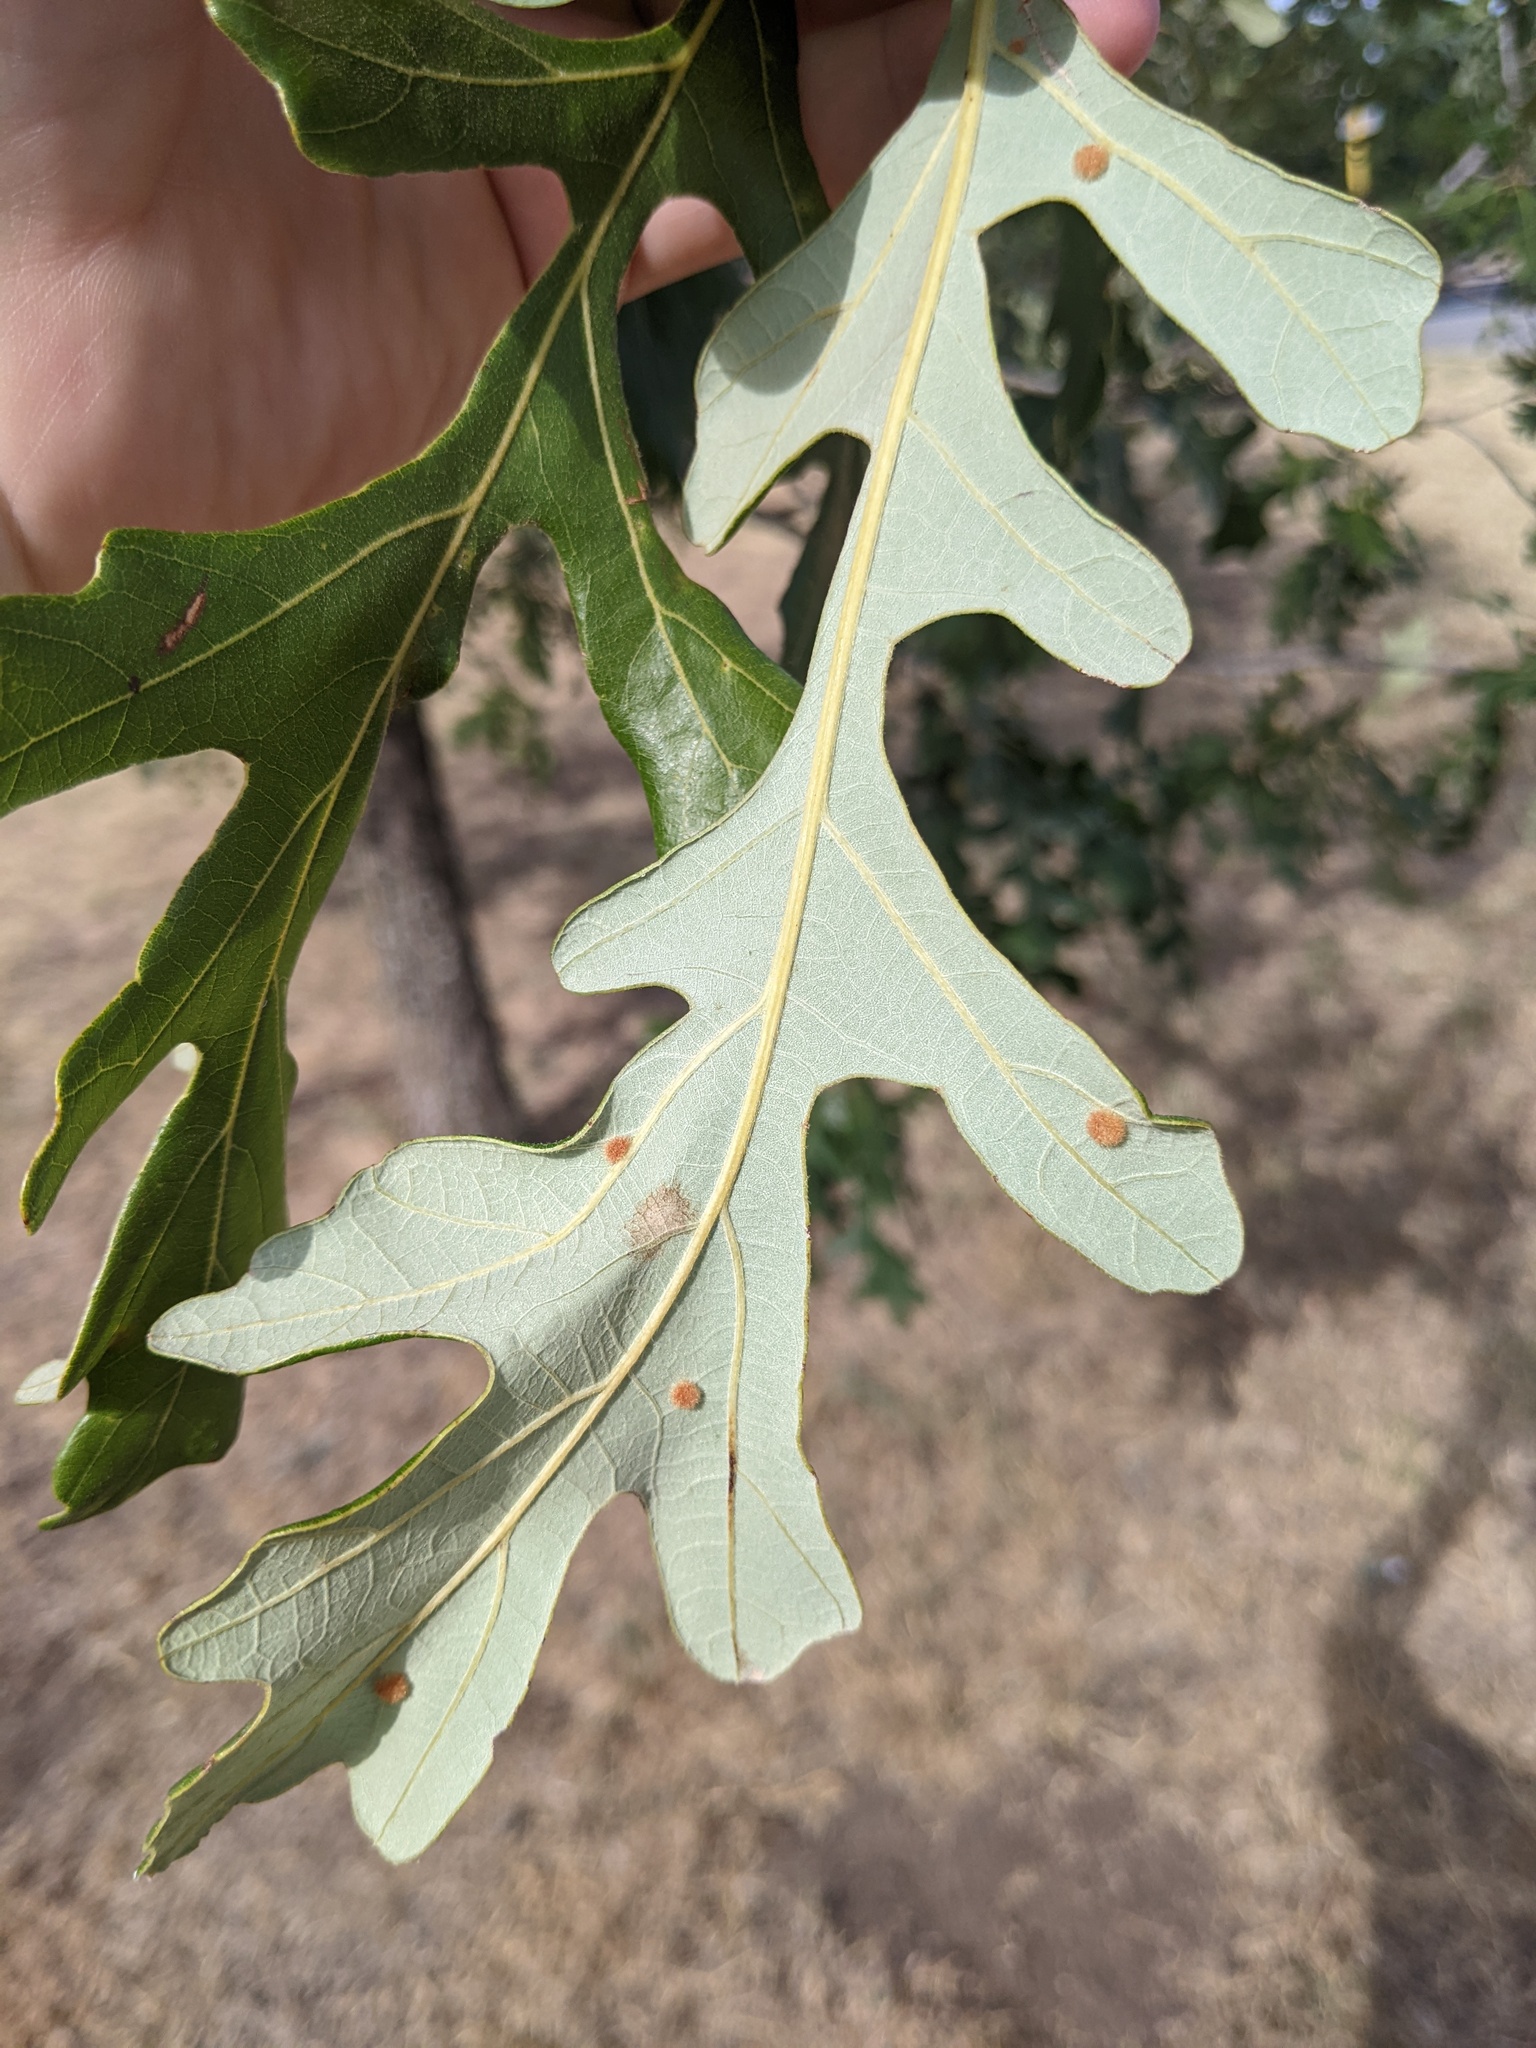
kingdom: Animalia
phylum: Arthropoda
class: Insecta
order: Hymenoptera
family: Cynipidae
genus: Neuroterus
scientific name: Neuroterus quercusverrucarum
